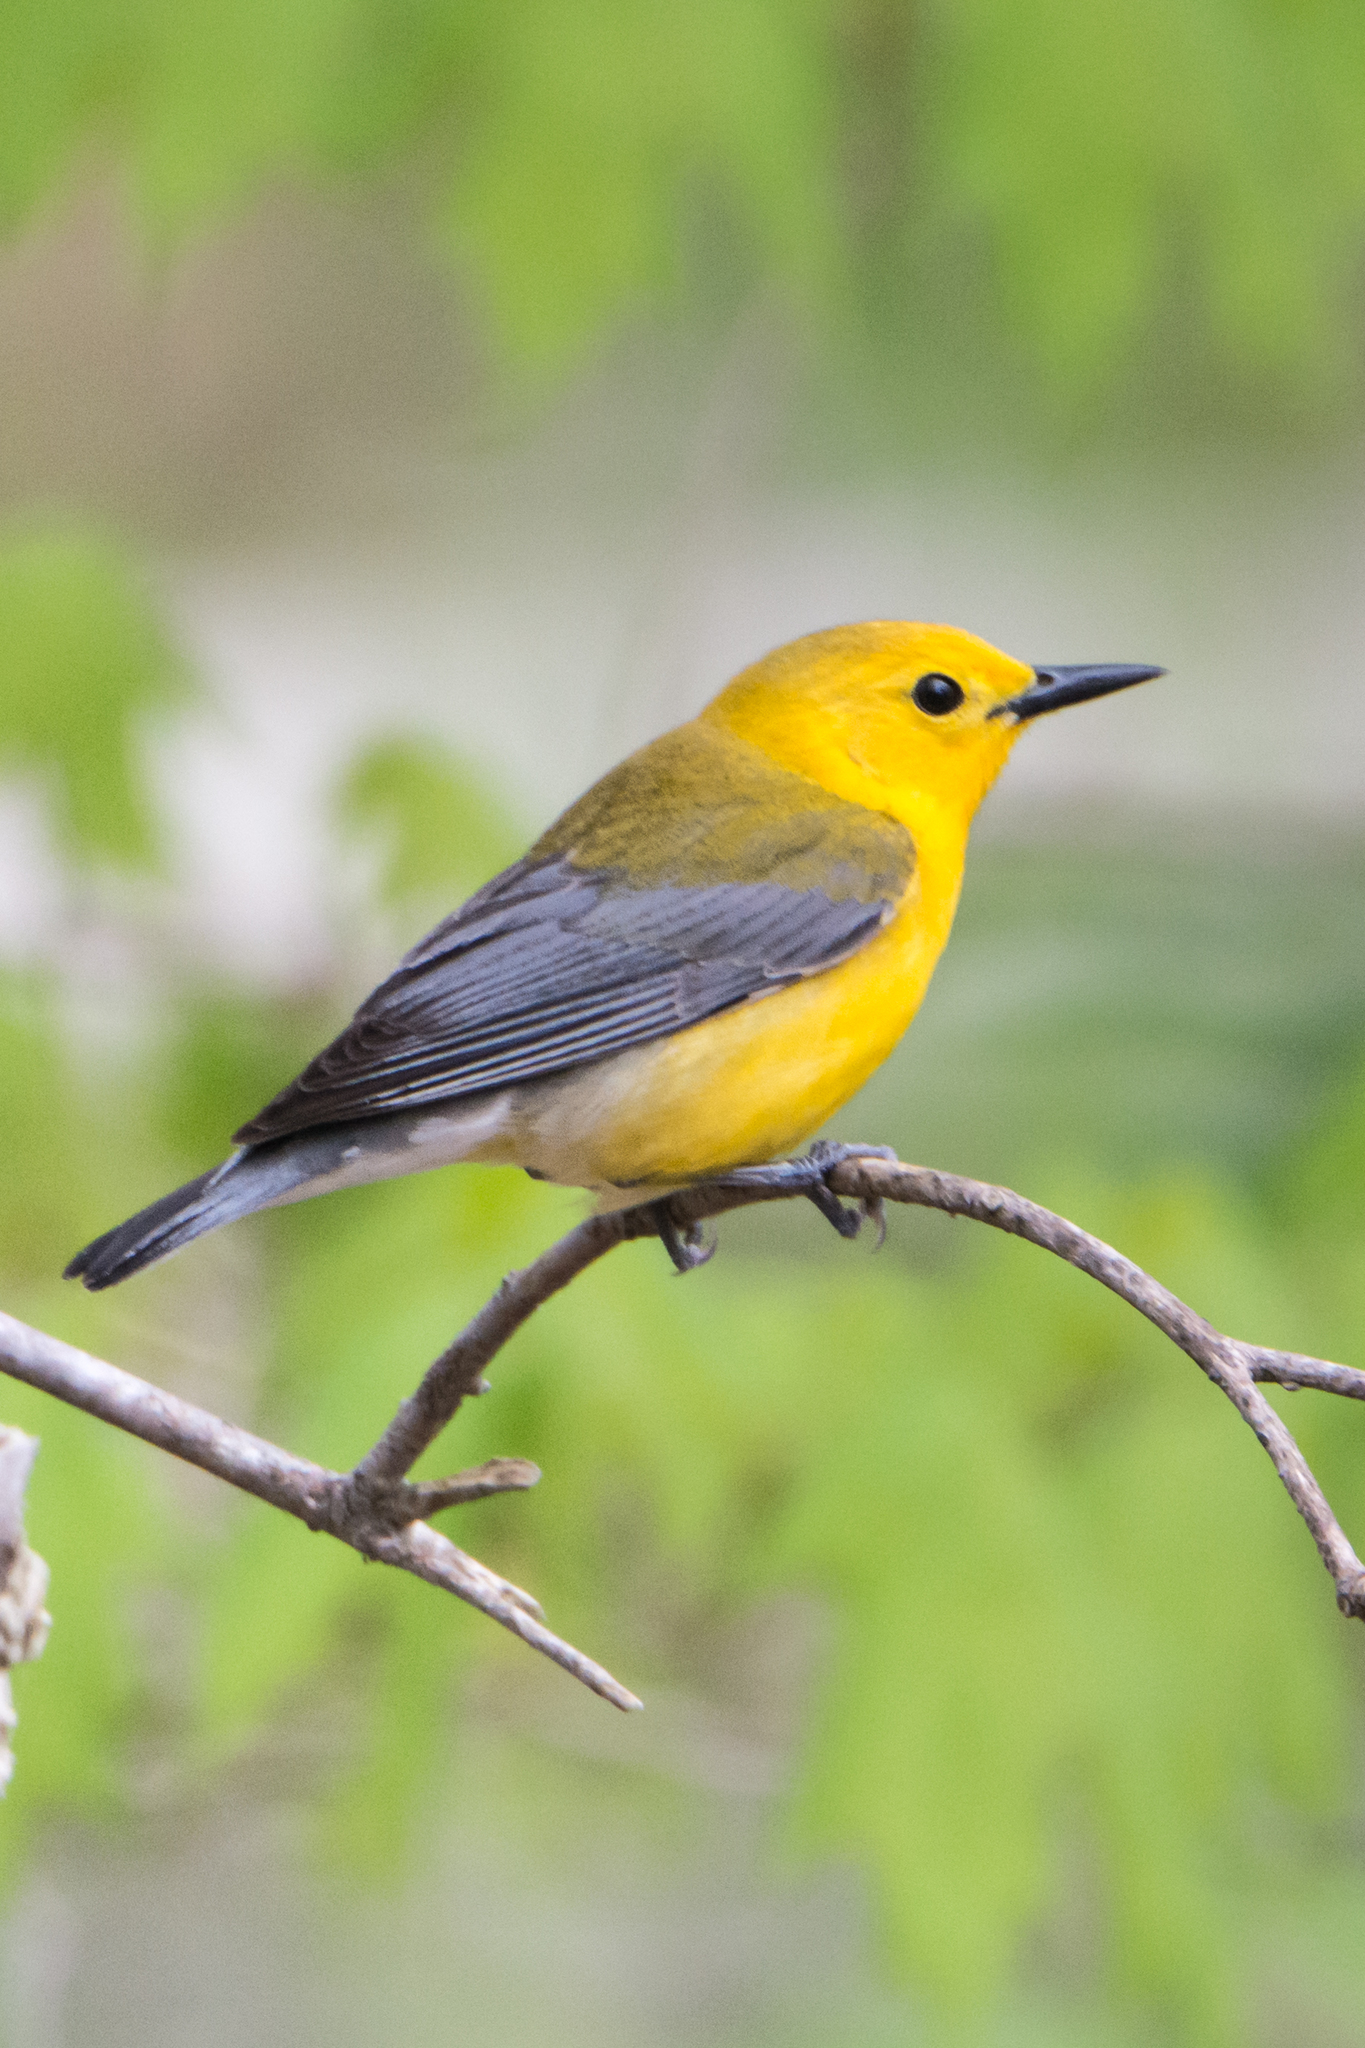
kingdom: Animalia
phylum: Chordata
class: Aves
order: Passeriformes
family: Parulidae
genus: Protonotaria
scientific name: Protonotaria citrea
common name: Prothonotary warbler
